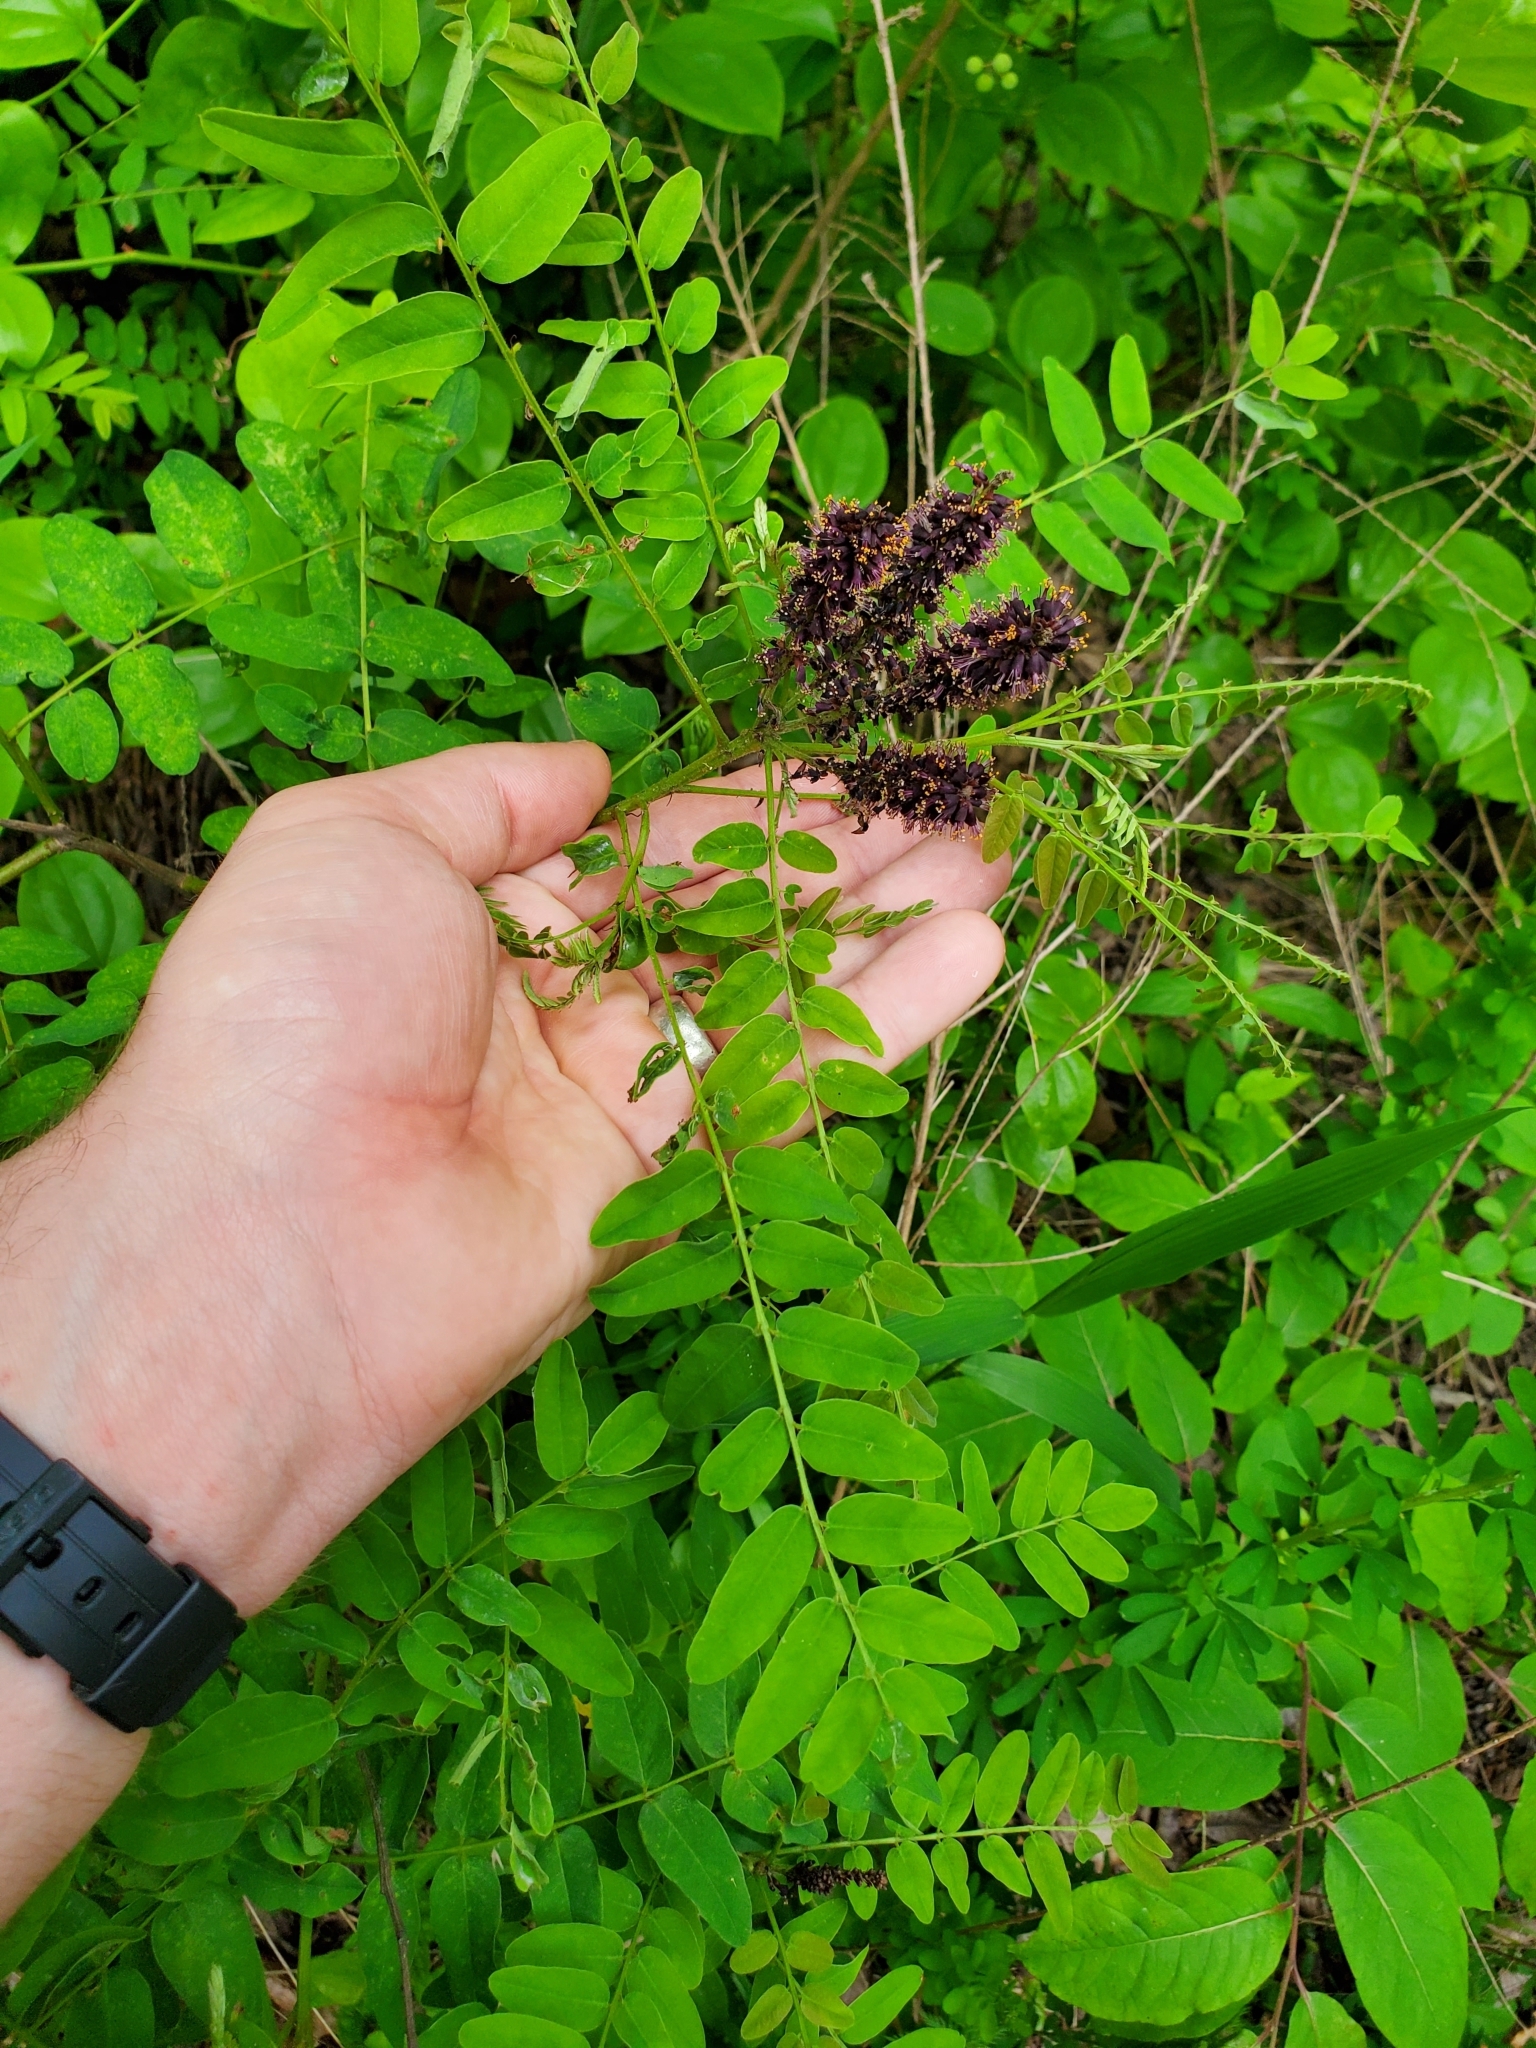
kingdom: Plantae
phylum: Tracheophyta
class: Magnoliopsida
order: Fabales
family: Fabaceae
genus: Amorpha
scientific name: Amorpha fruticosa
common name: False indigo
